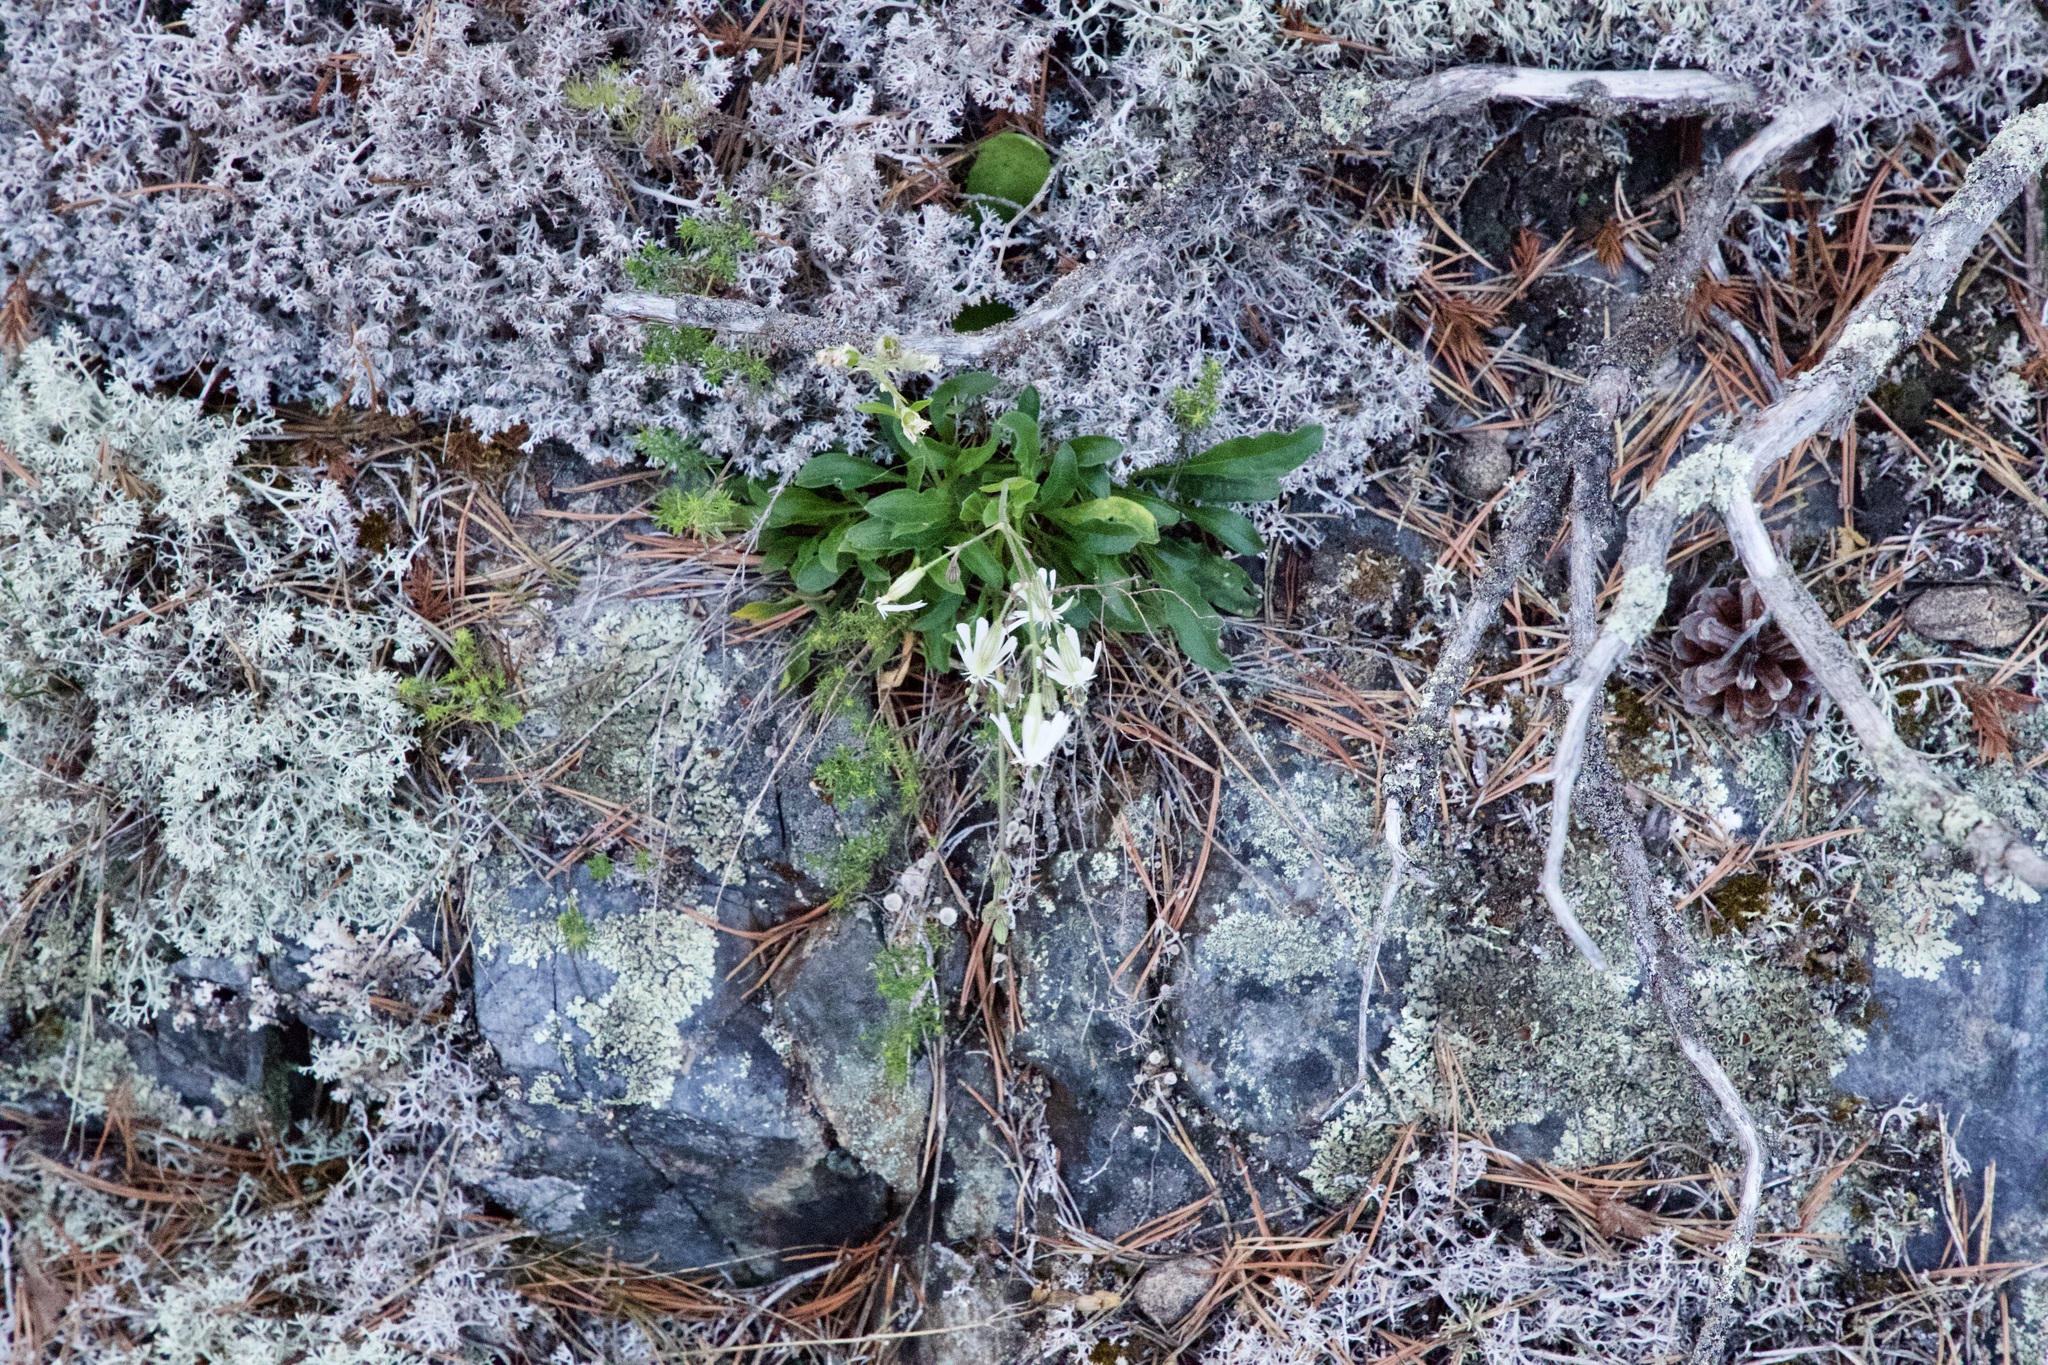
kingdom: Plantae
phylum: Tracheophyta
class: Magnoliopsida
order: Caryophyllales
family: Caryophyllaceae
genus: Silene
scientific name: Silene nutans
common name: Nottingham catchfly
